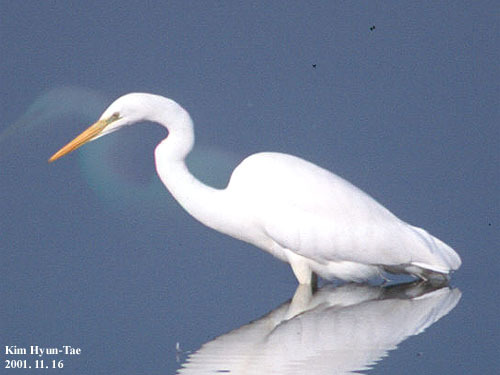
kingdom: Animalia
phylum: Chordata
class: Aves
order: Pelecaniformes
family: Ardeidae
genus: Ardea
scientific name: Ardea alba
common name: Great egret
